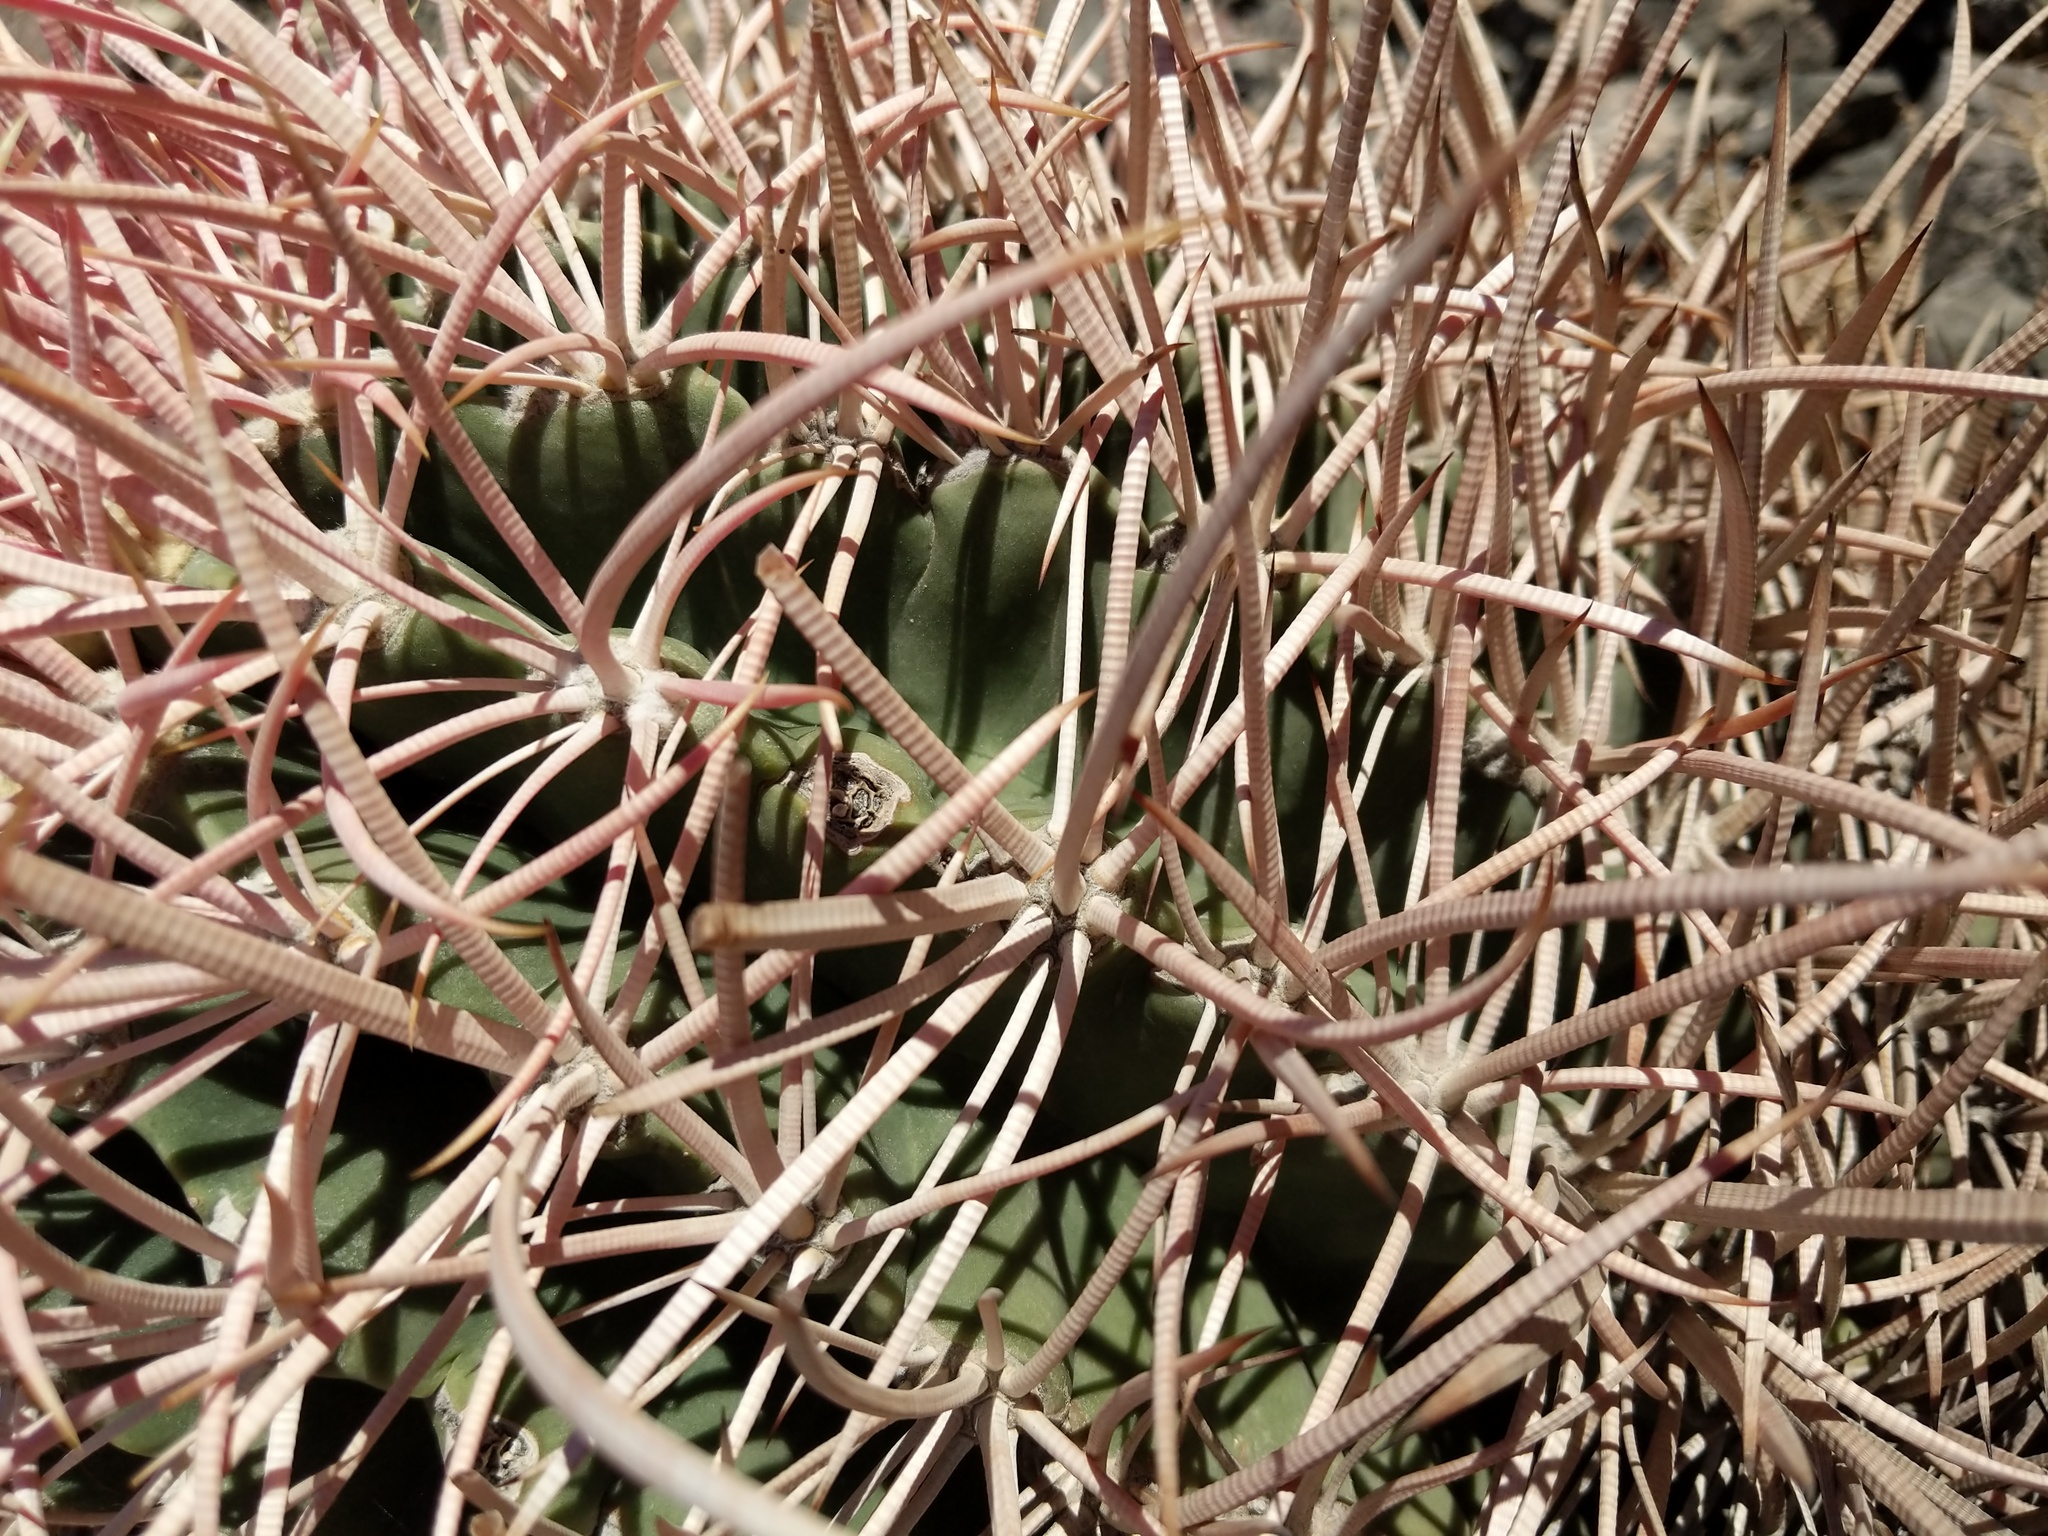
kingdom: Plantae
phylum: Tracheophyta
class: Magnoliopsida
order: Caryophyllales
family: Cactaceae
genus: Echinocactus
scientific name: Echinocactus polycephalus
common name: Cottontop cactus
